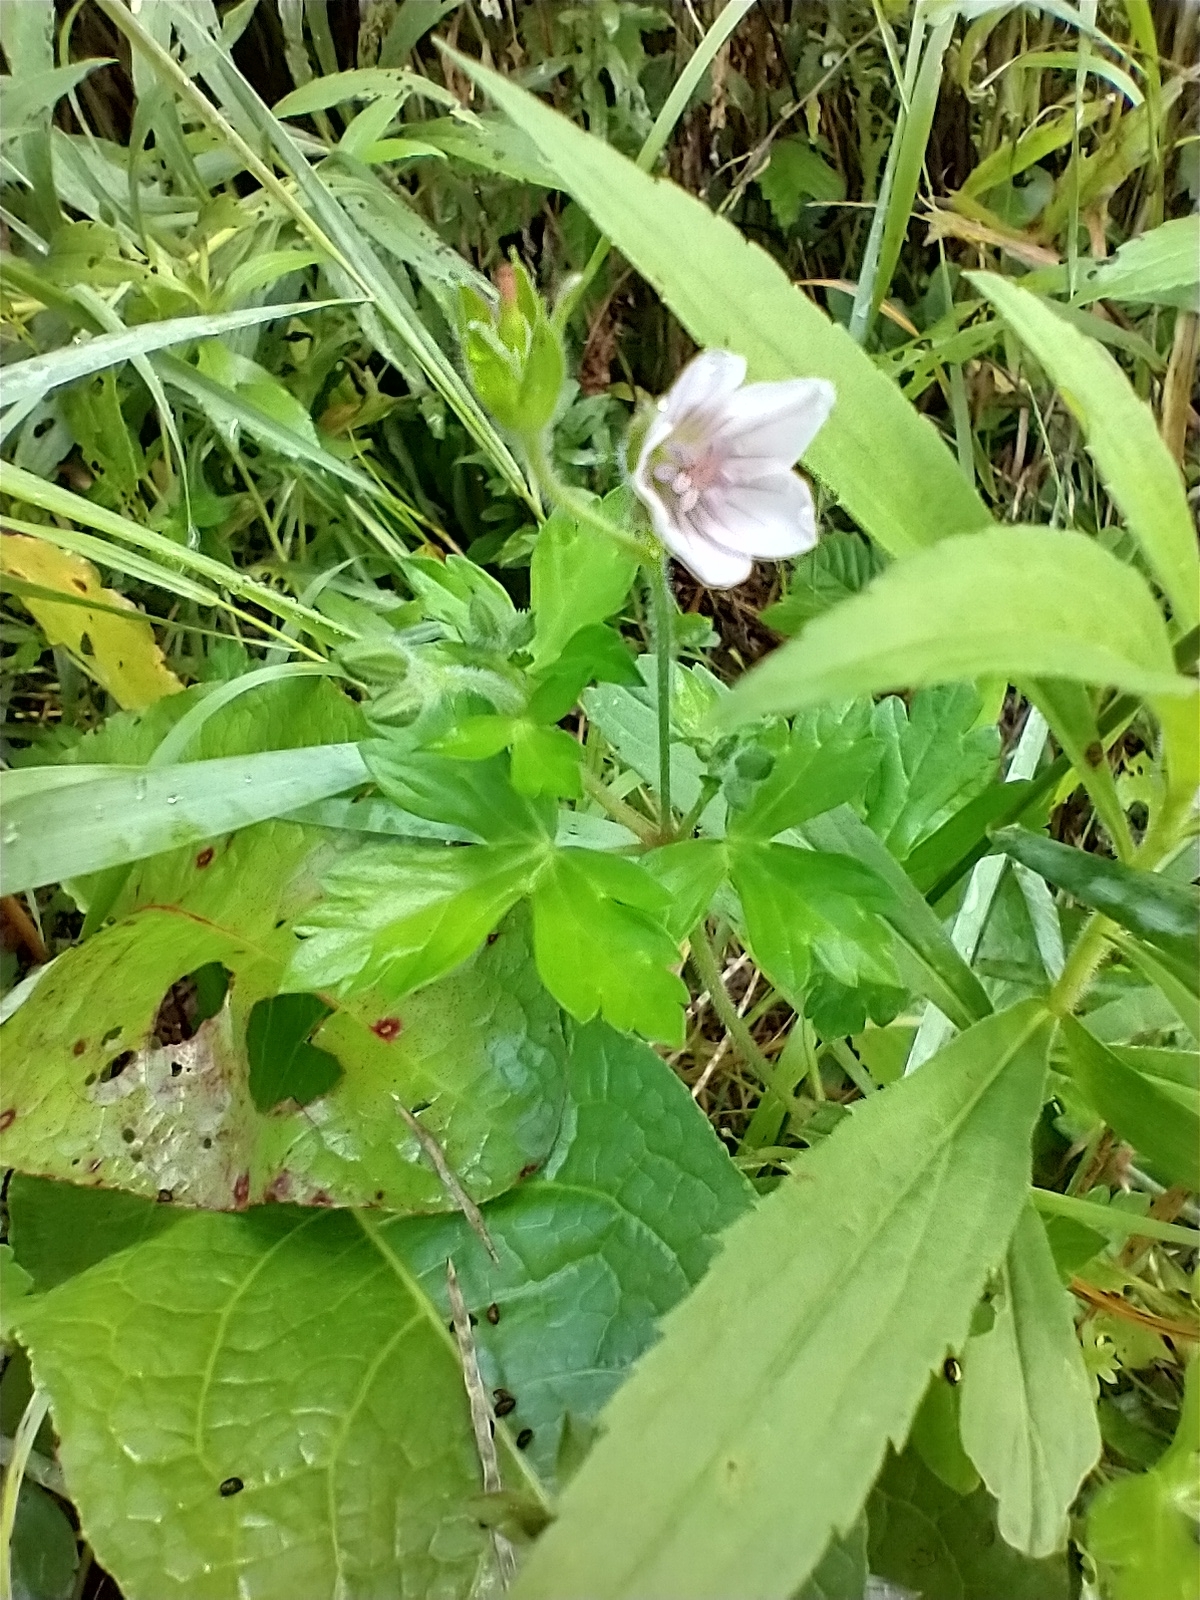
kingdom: Plantae
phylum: Tracheophyta
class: Magnoliopsida
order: Geraniales
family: Geraniaceae
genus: Geranium
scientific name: Geranium thunbergii
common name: Dewdrop crane's-bill
